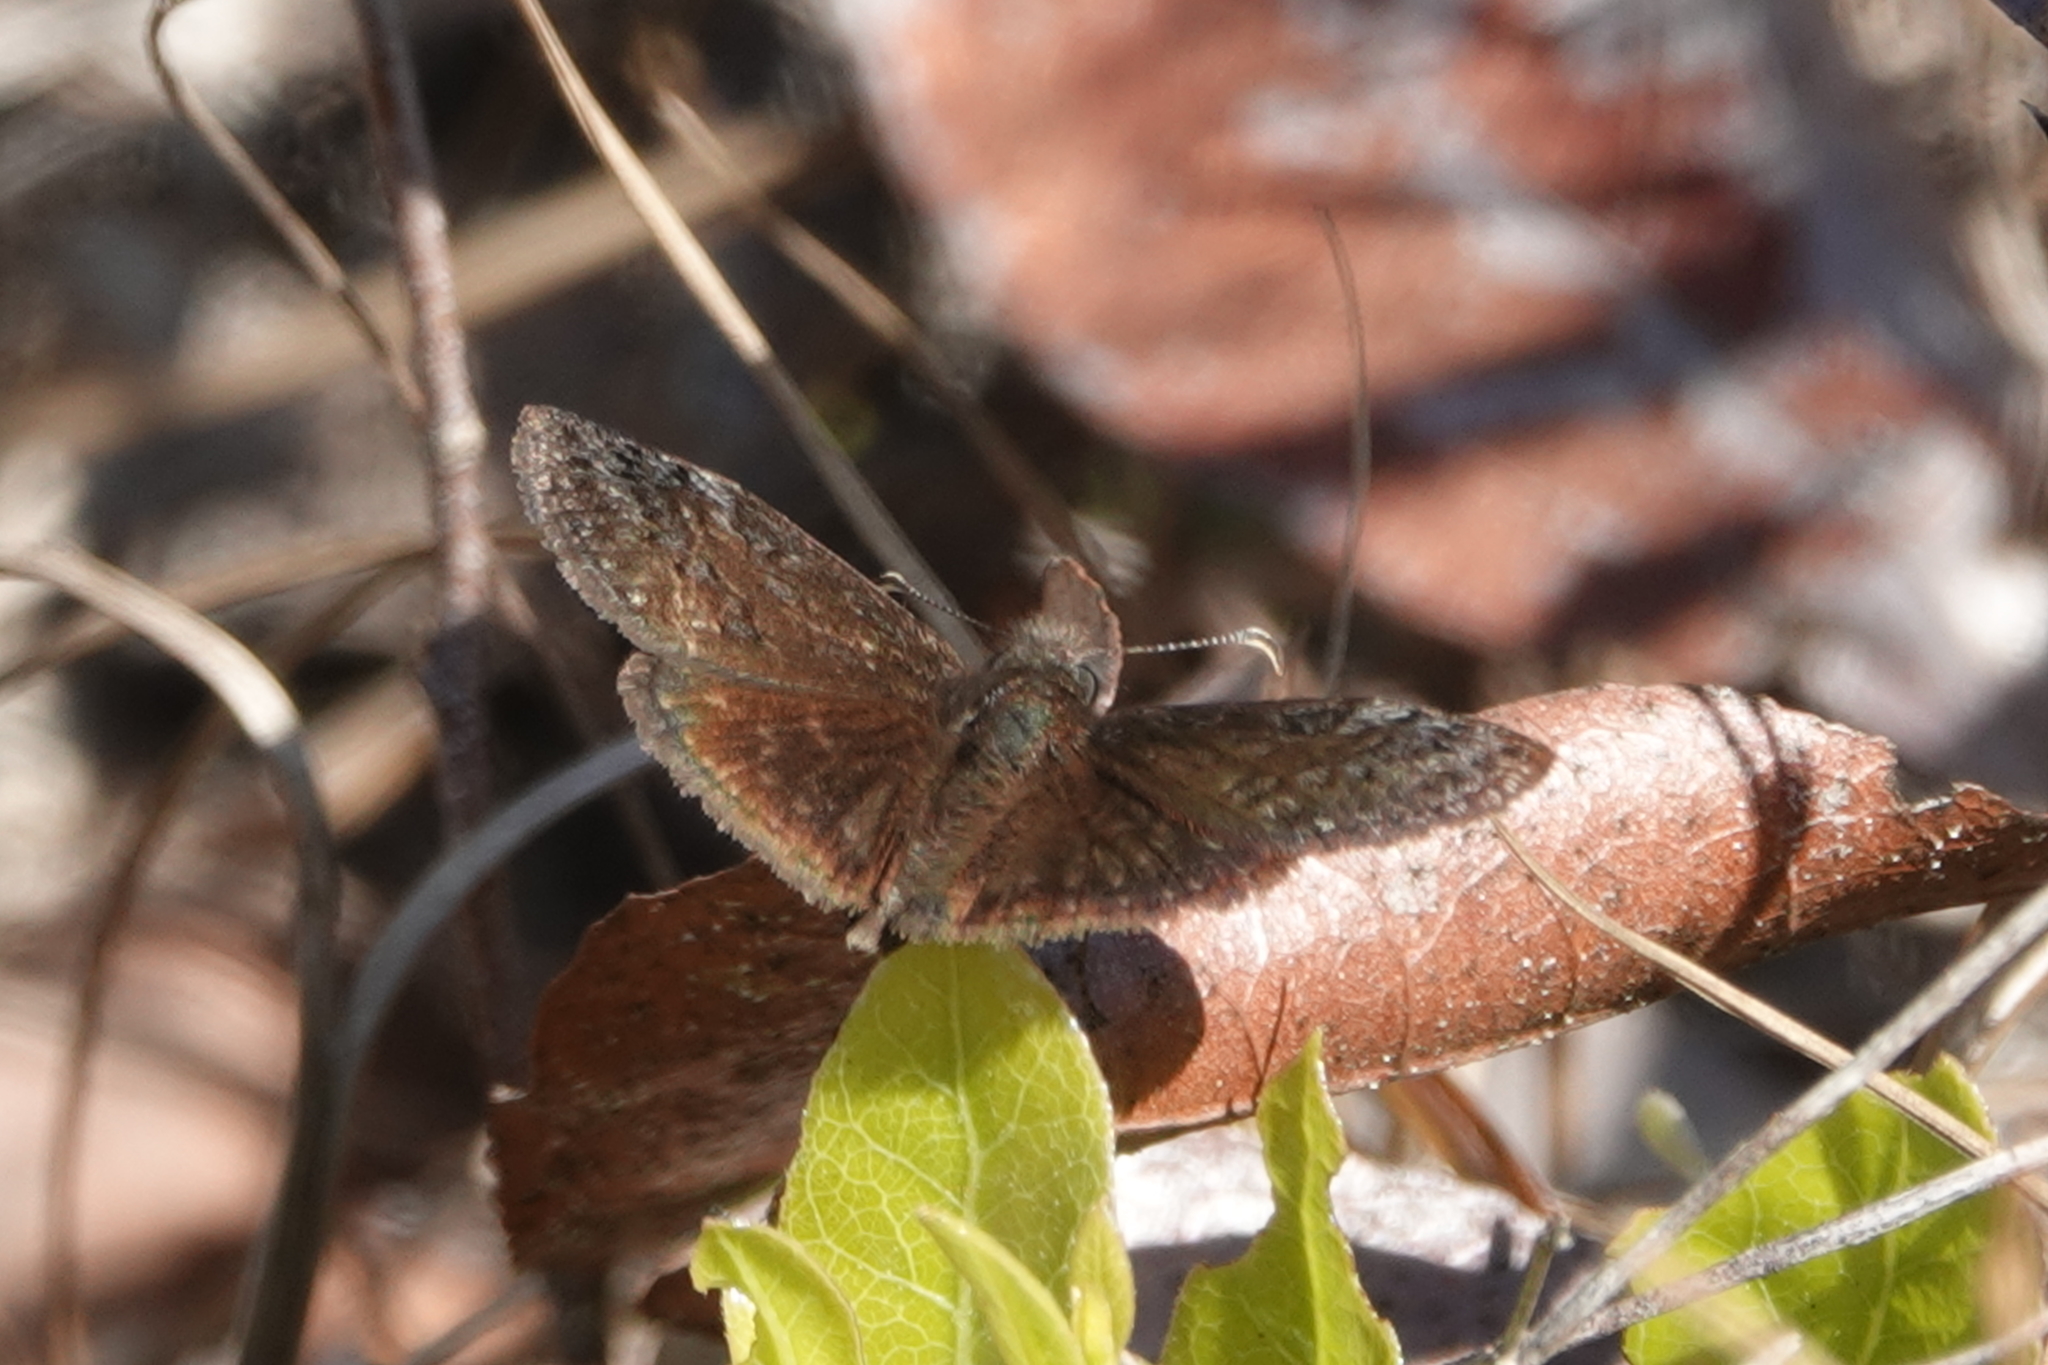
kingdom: Animalia
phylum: Arthropoda
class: Insecta
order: Lepidoptera
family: Hesperiidae
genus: Erynnis
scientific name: Erynnis brizo
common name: Sleepy duskywing
